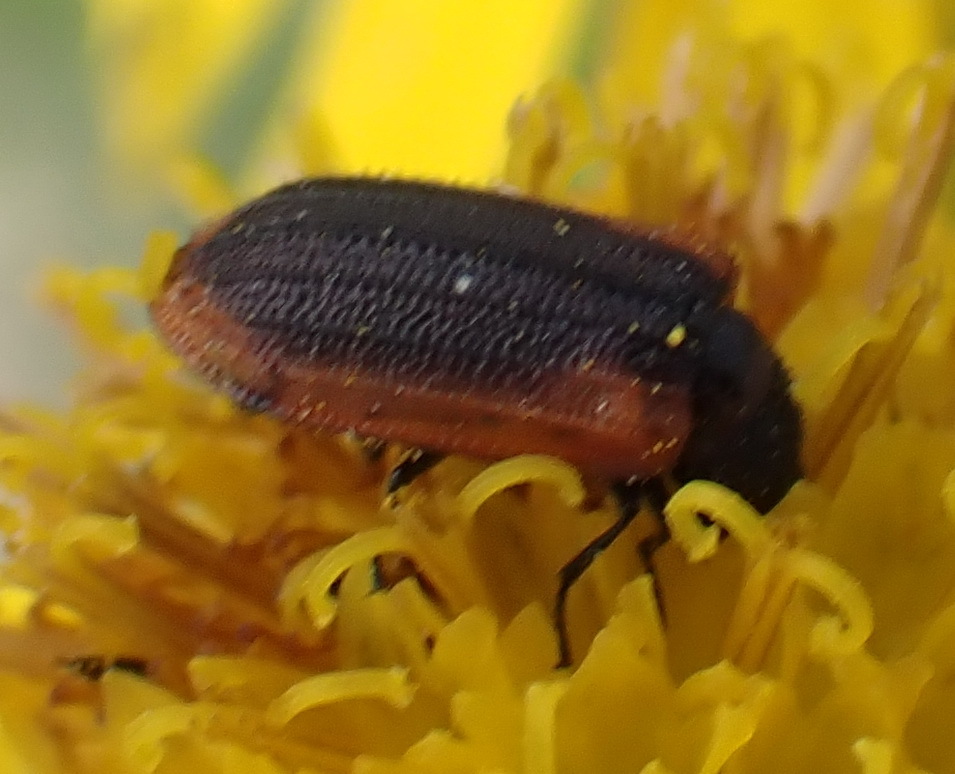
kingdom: Animalia
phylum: Arthropoda
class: Insecta
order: Coleoptera
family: Melyridae
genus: Melyris
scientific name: Melyris
